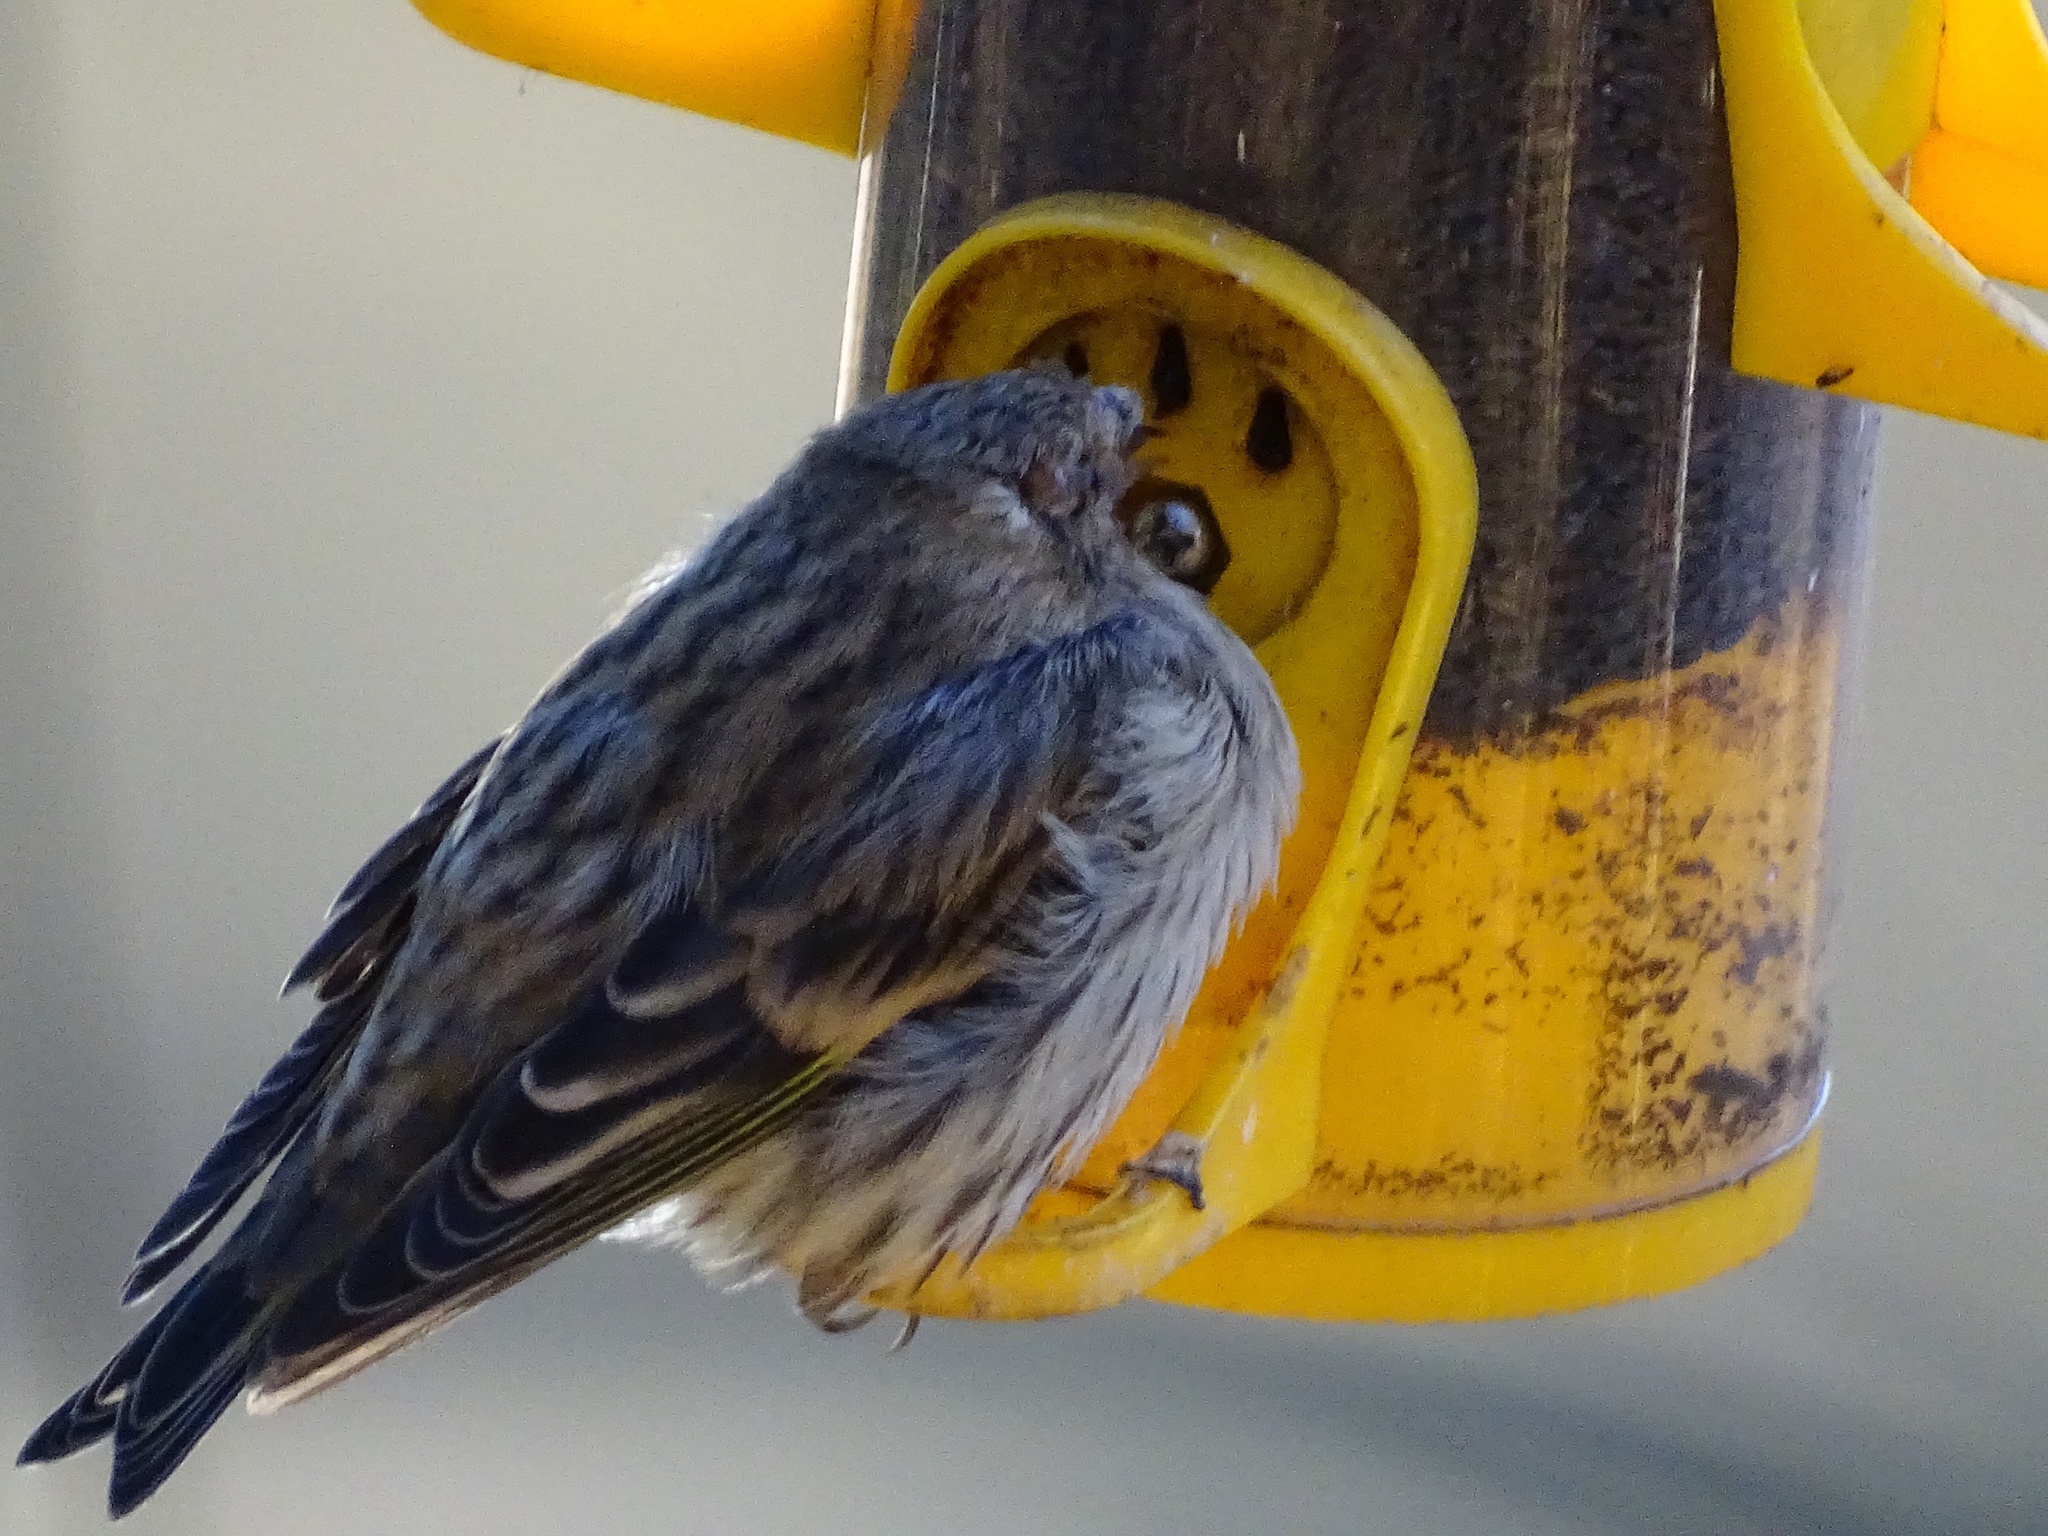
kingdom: Animalia
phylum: Chordata
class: Aves
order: Passeriformes
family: Fringillidae
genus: Spinus
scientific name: Spinus pinus
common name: Pine siskin
